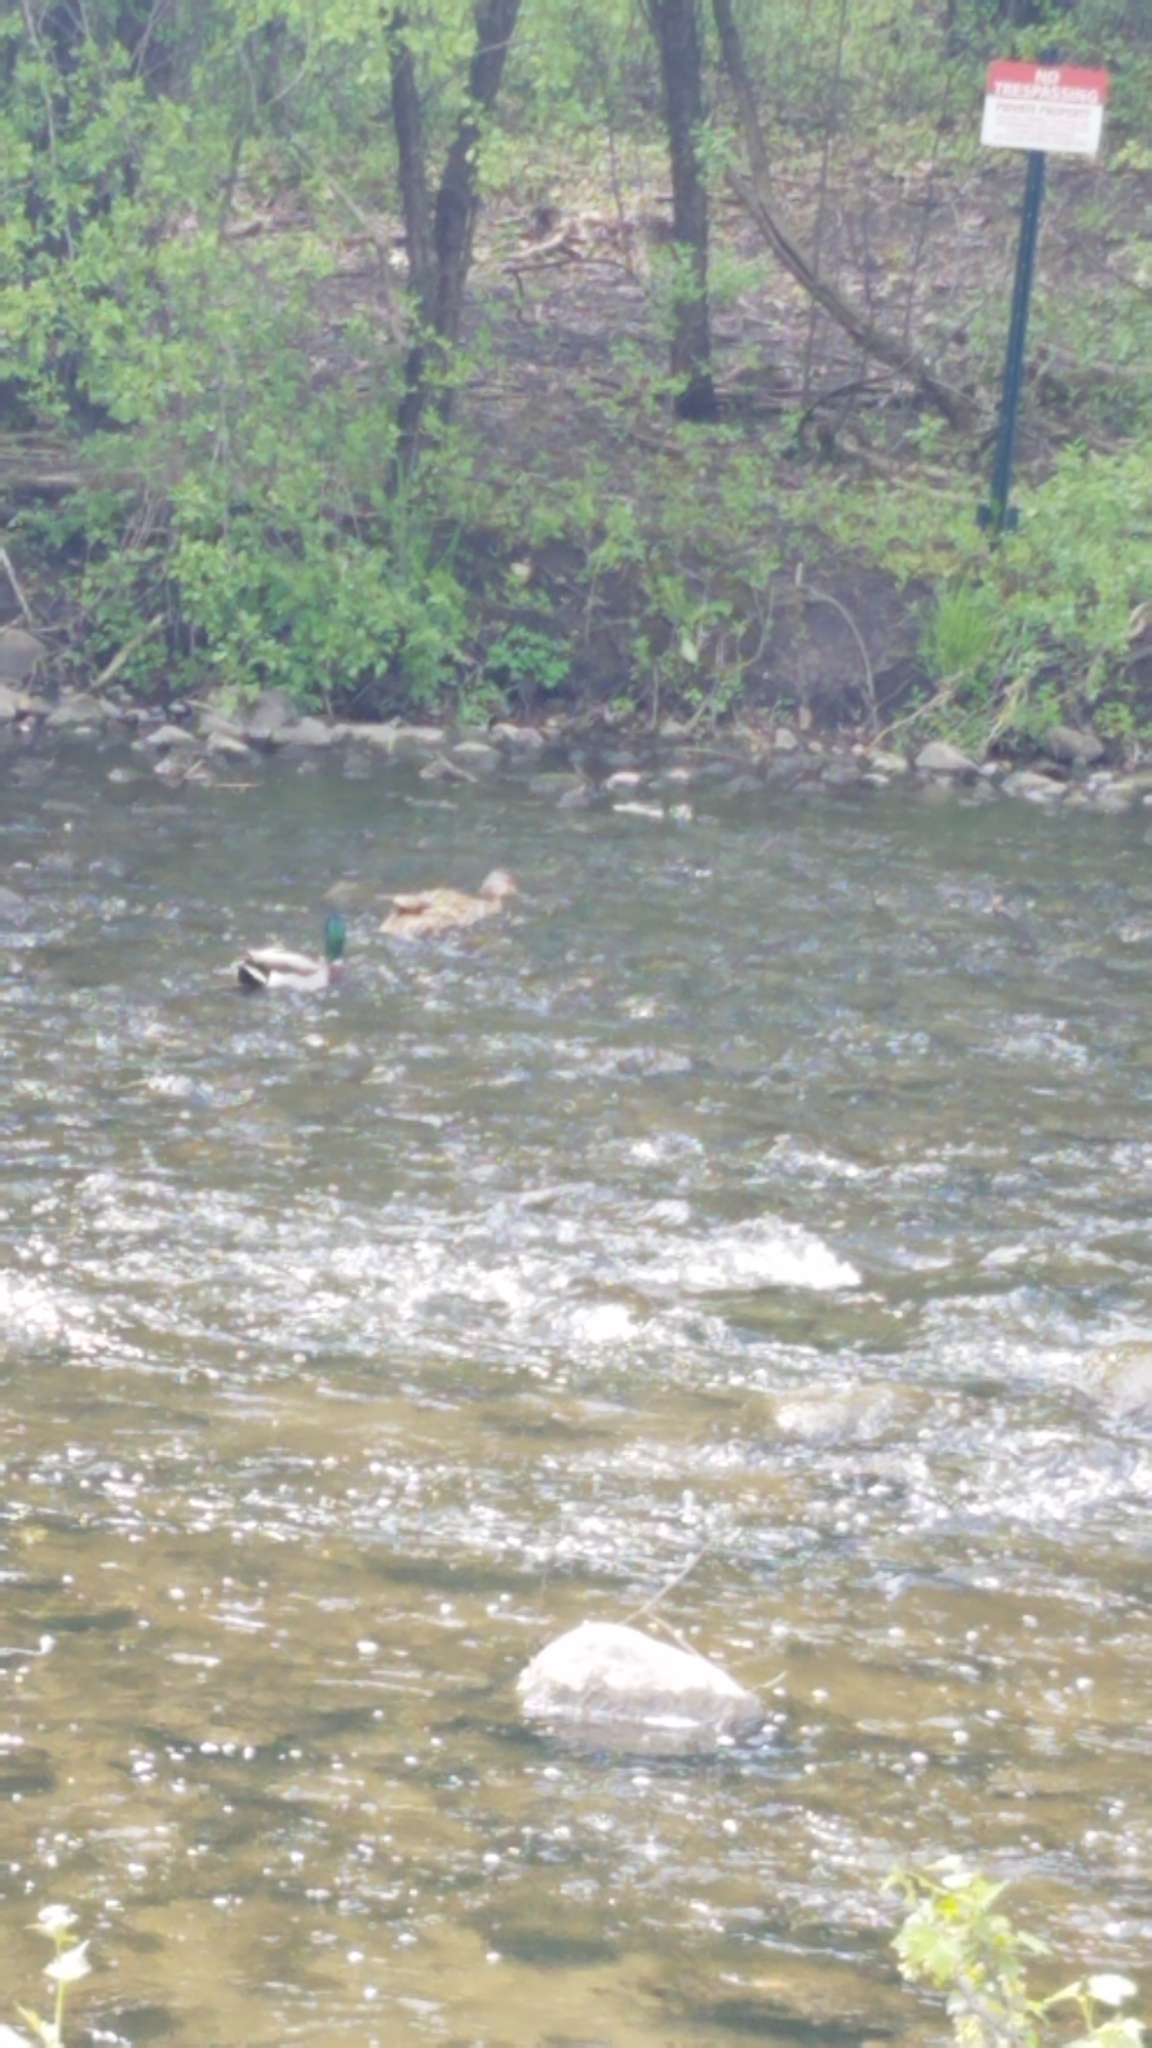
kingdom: Animalia
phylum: Chordata
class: Aves
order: Anseriformes
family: Anatidae
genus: Anas
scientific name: Anas platyrhynchos
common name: Mallard
